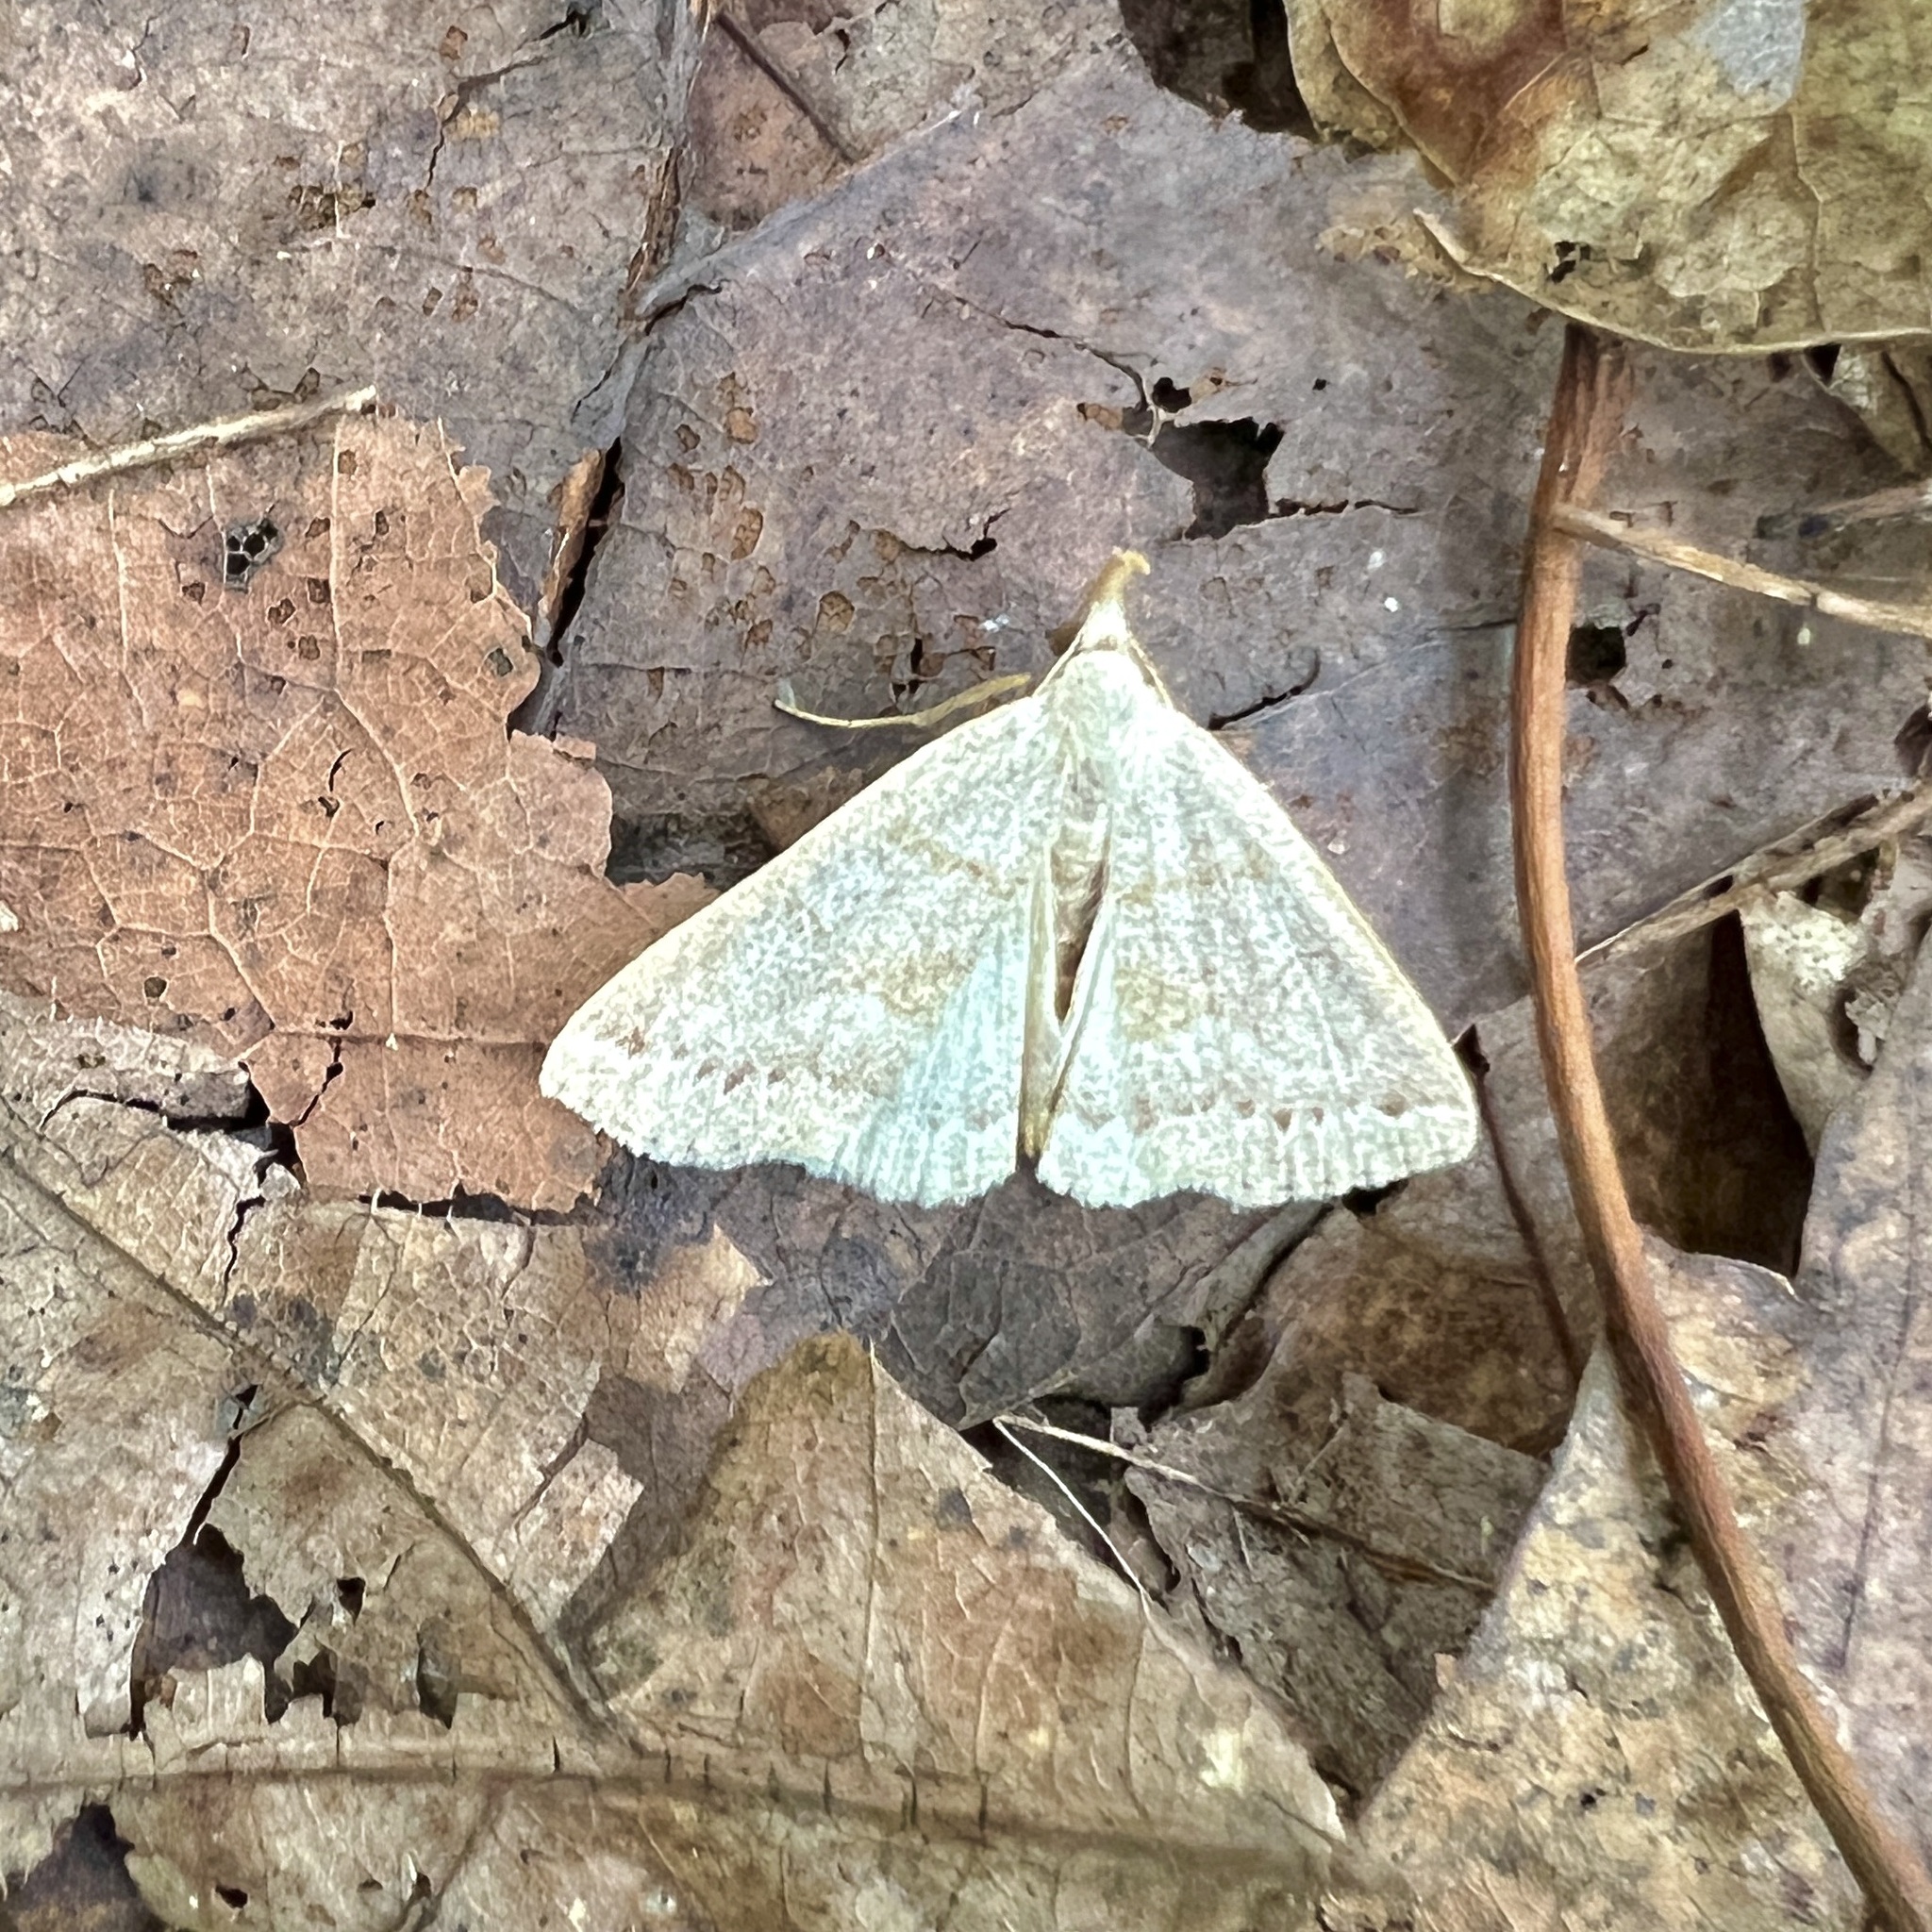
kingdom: Animalia
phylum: Arthropoda
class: Insecta
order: Lepidoptera
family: Erebidae
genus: Macrochilo
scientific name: Macrochilo morbidalis
